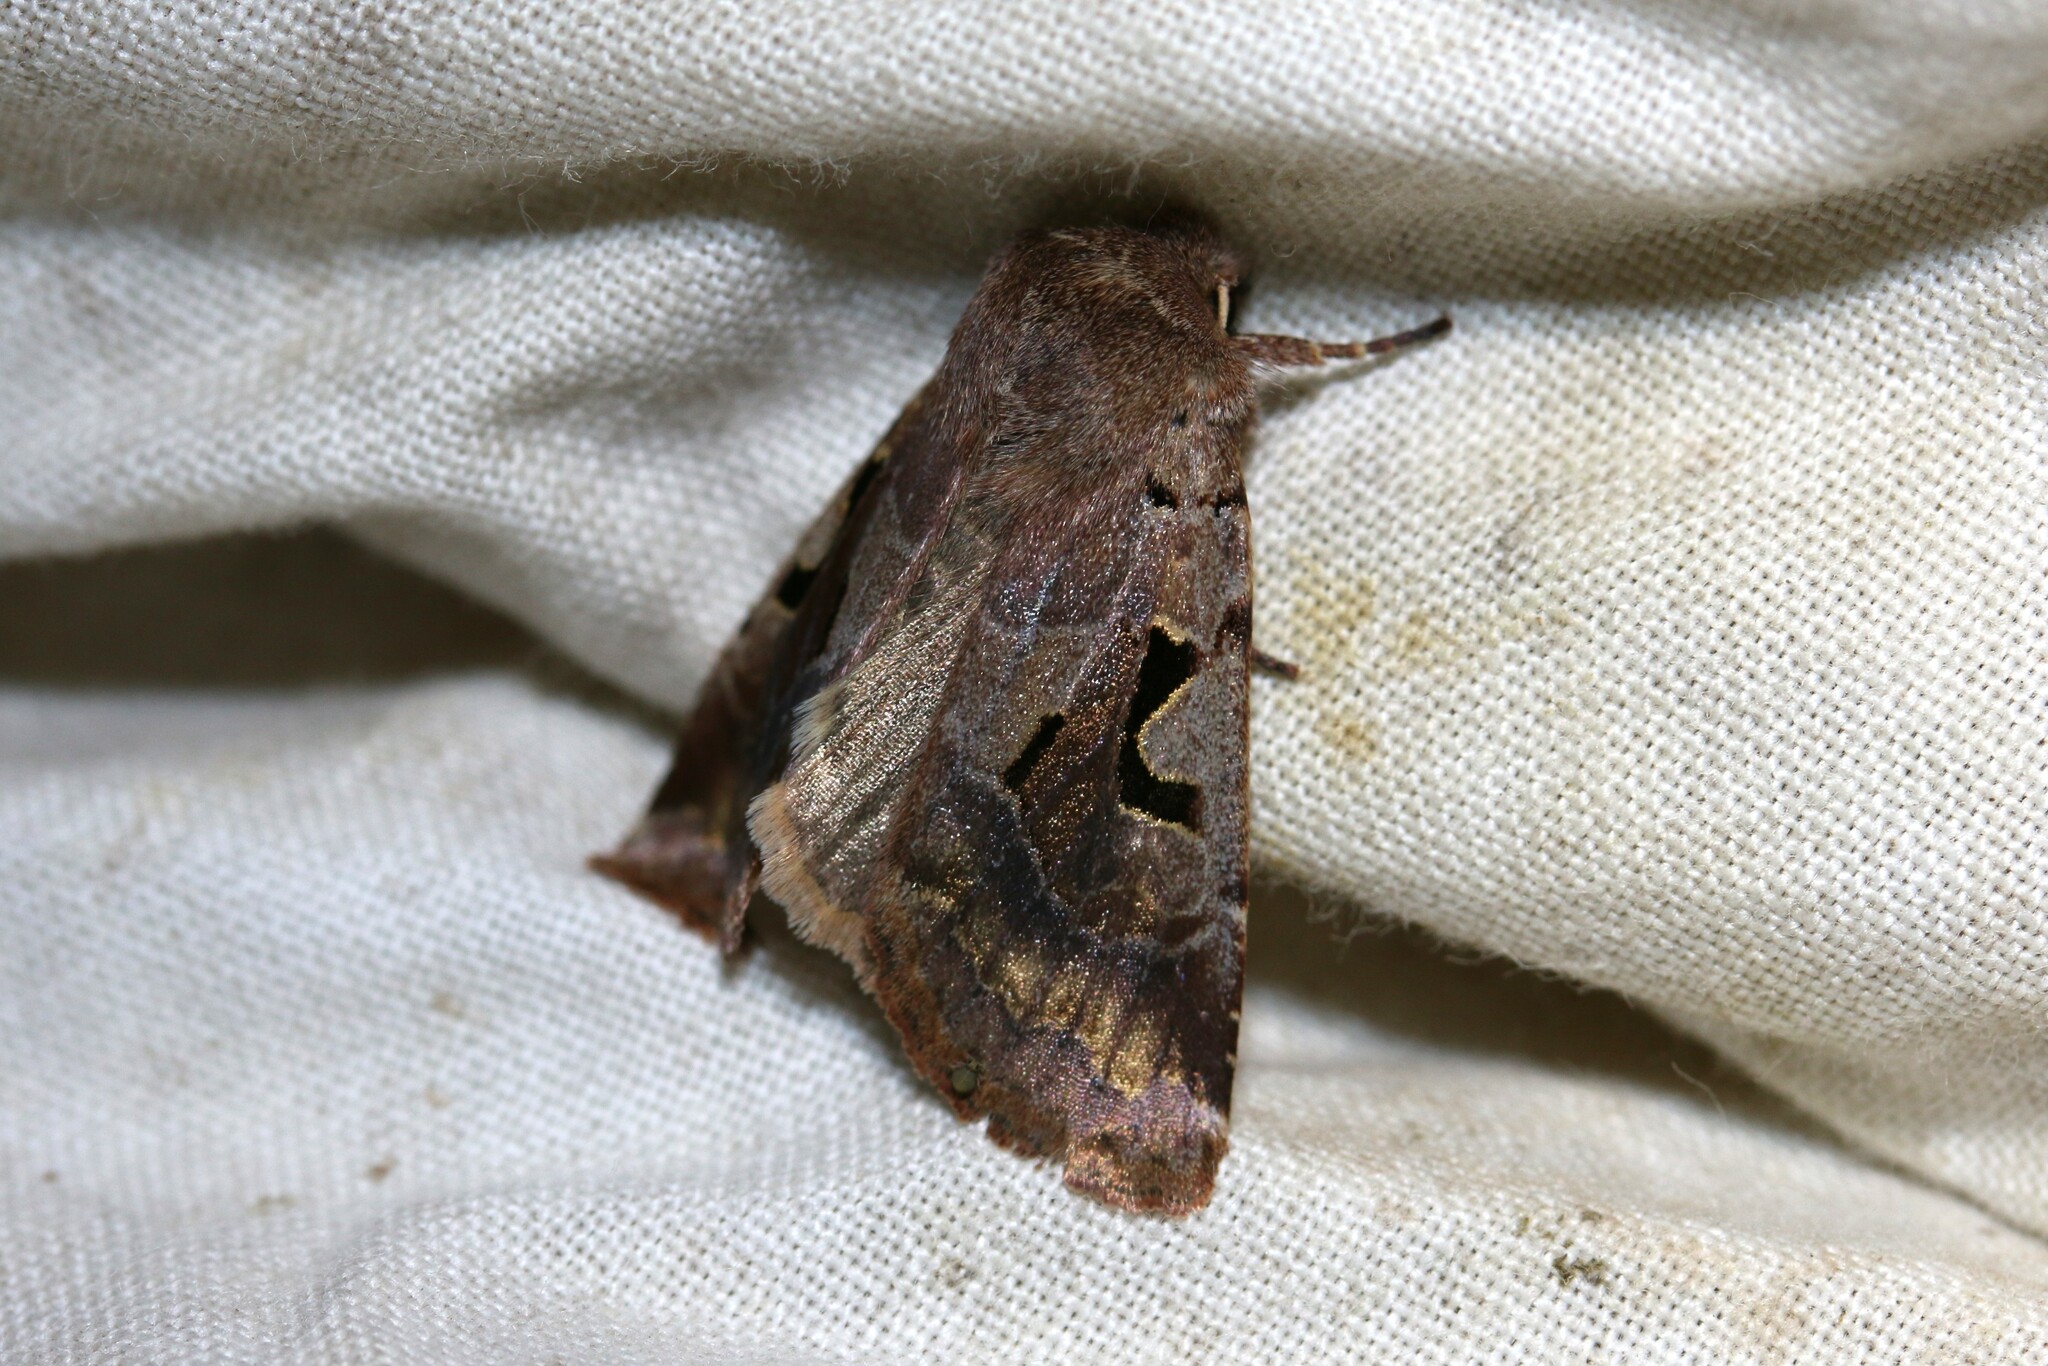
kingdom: Animalia
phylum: Arthropoda
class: Insecta
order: Lepidoptera
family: Noctuidae
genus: Orthosia
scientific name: Orthosia gothica
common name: Hebrew character
